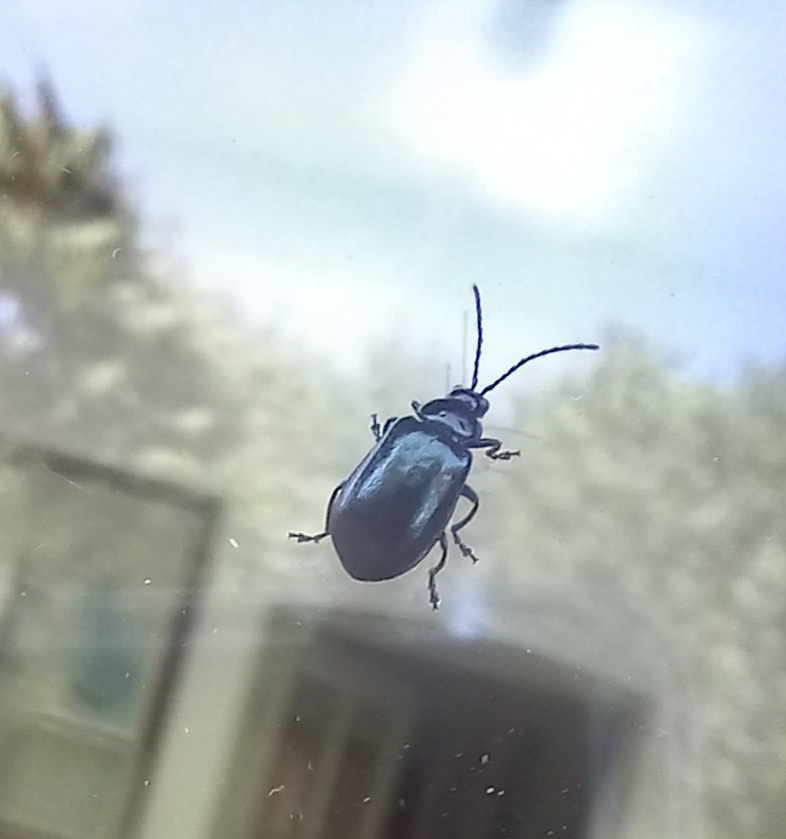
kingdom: Animalia
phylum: Arthropoda
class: Insecta
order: Coleoptera
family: Chrysomelidae
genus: Agelastica
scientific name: Agelastica alni
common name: Alder leaf beetle
